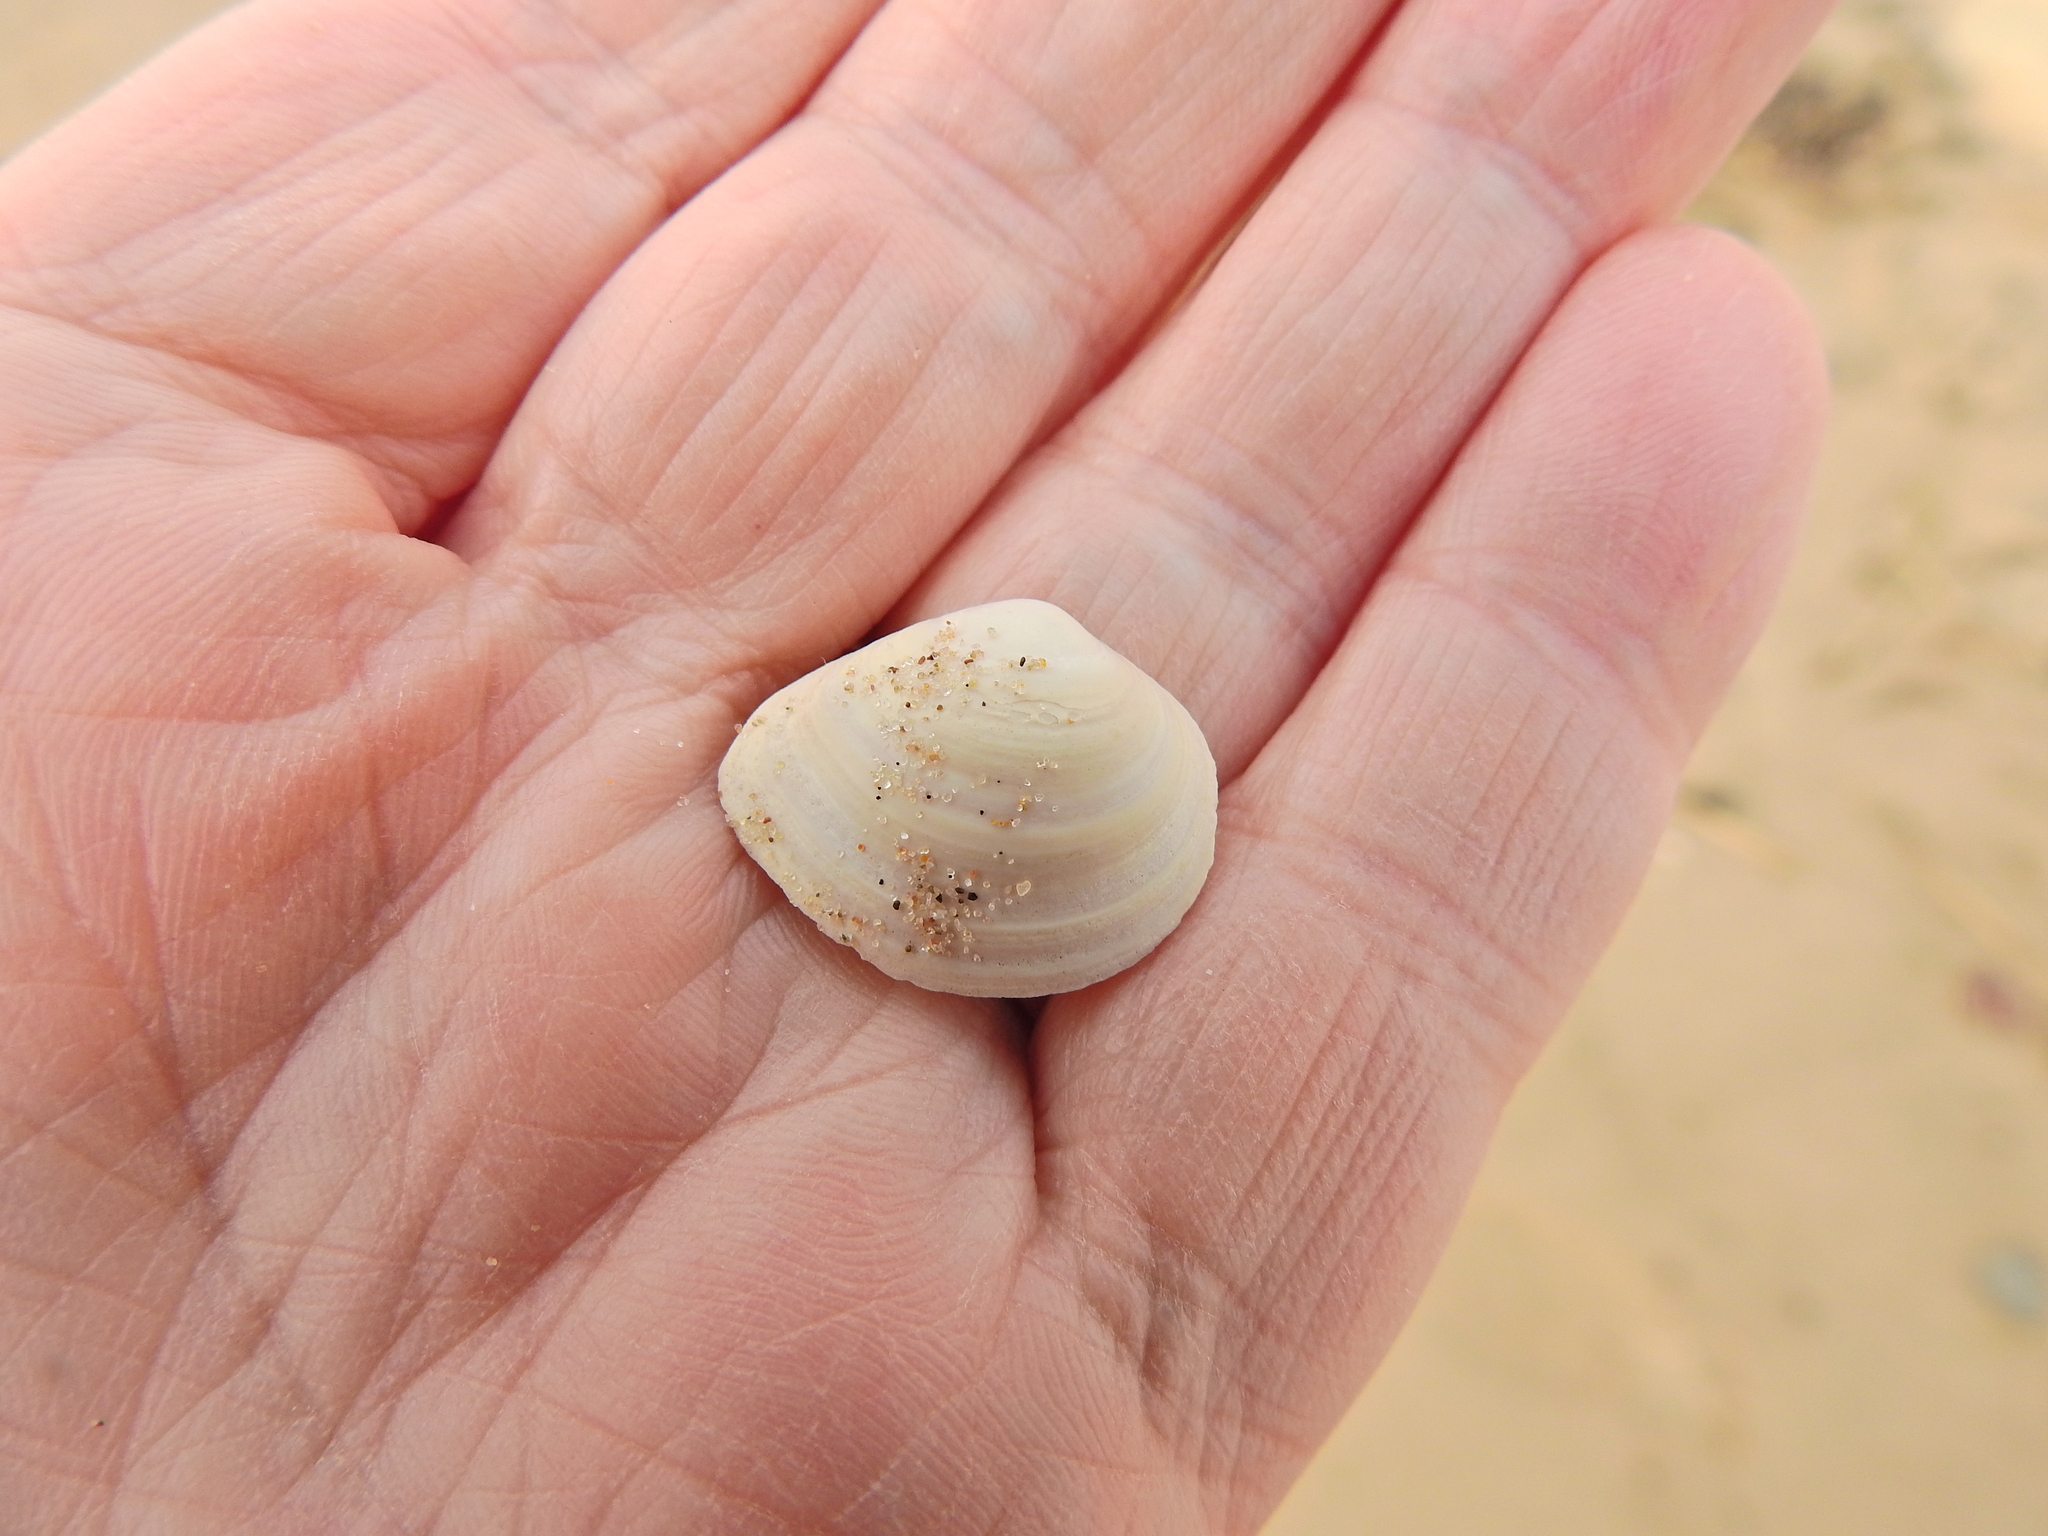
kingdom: Animalia
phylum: Mollusca
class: Bivalvia
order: Cardiida
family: Tellinidae
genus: Macoma
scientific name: Macoma balthica
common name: Baltic tellin
